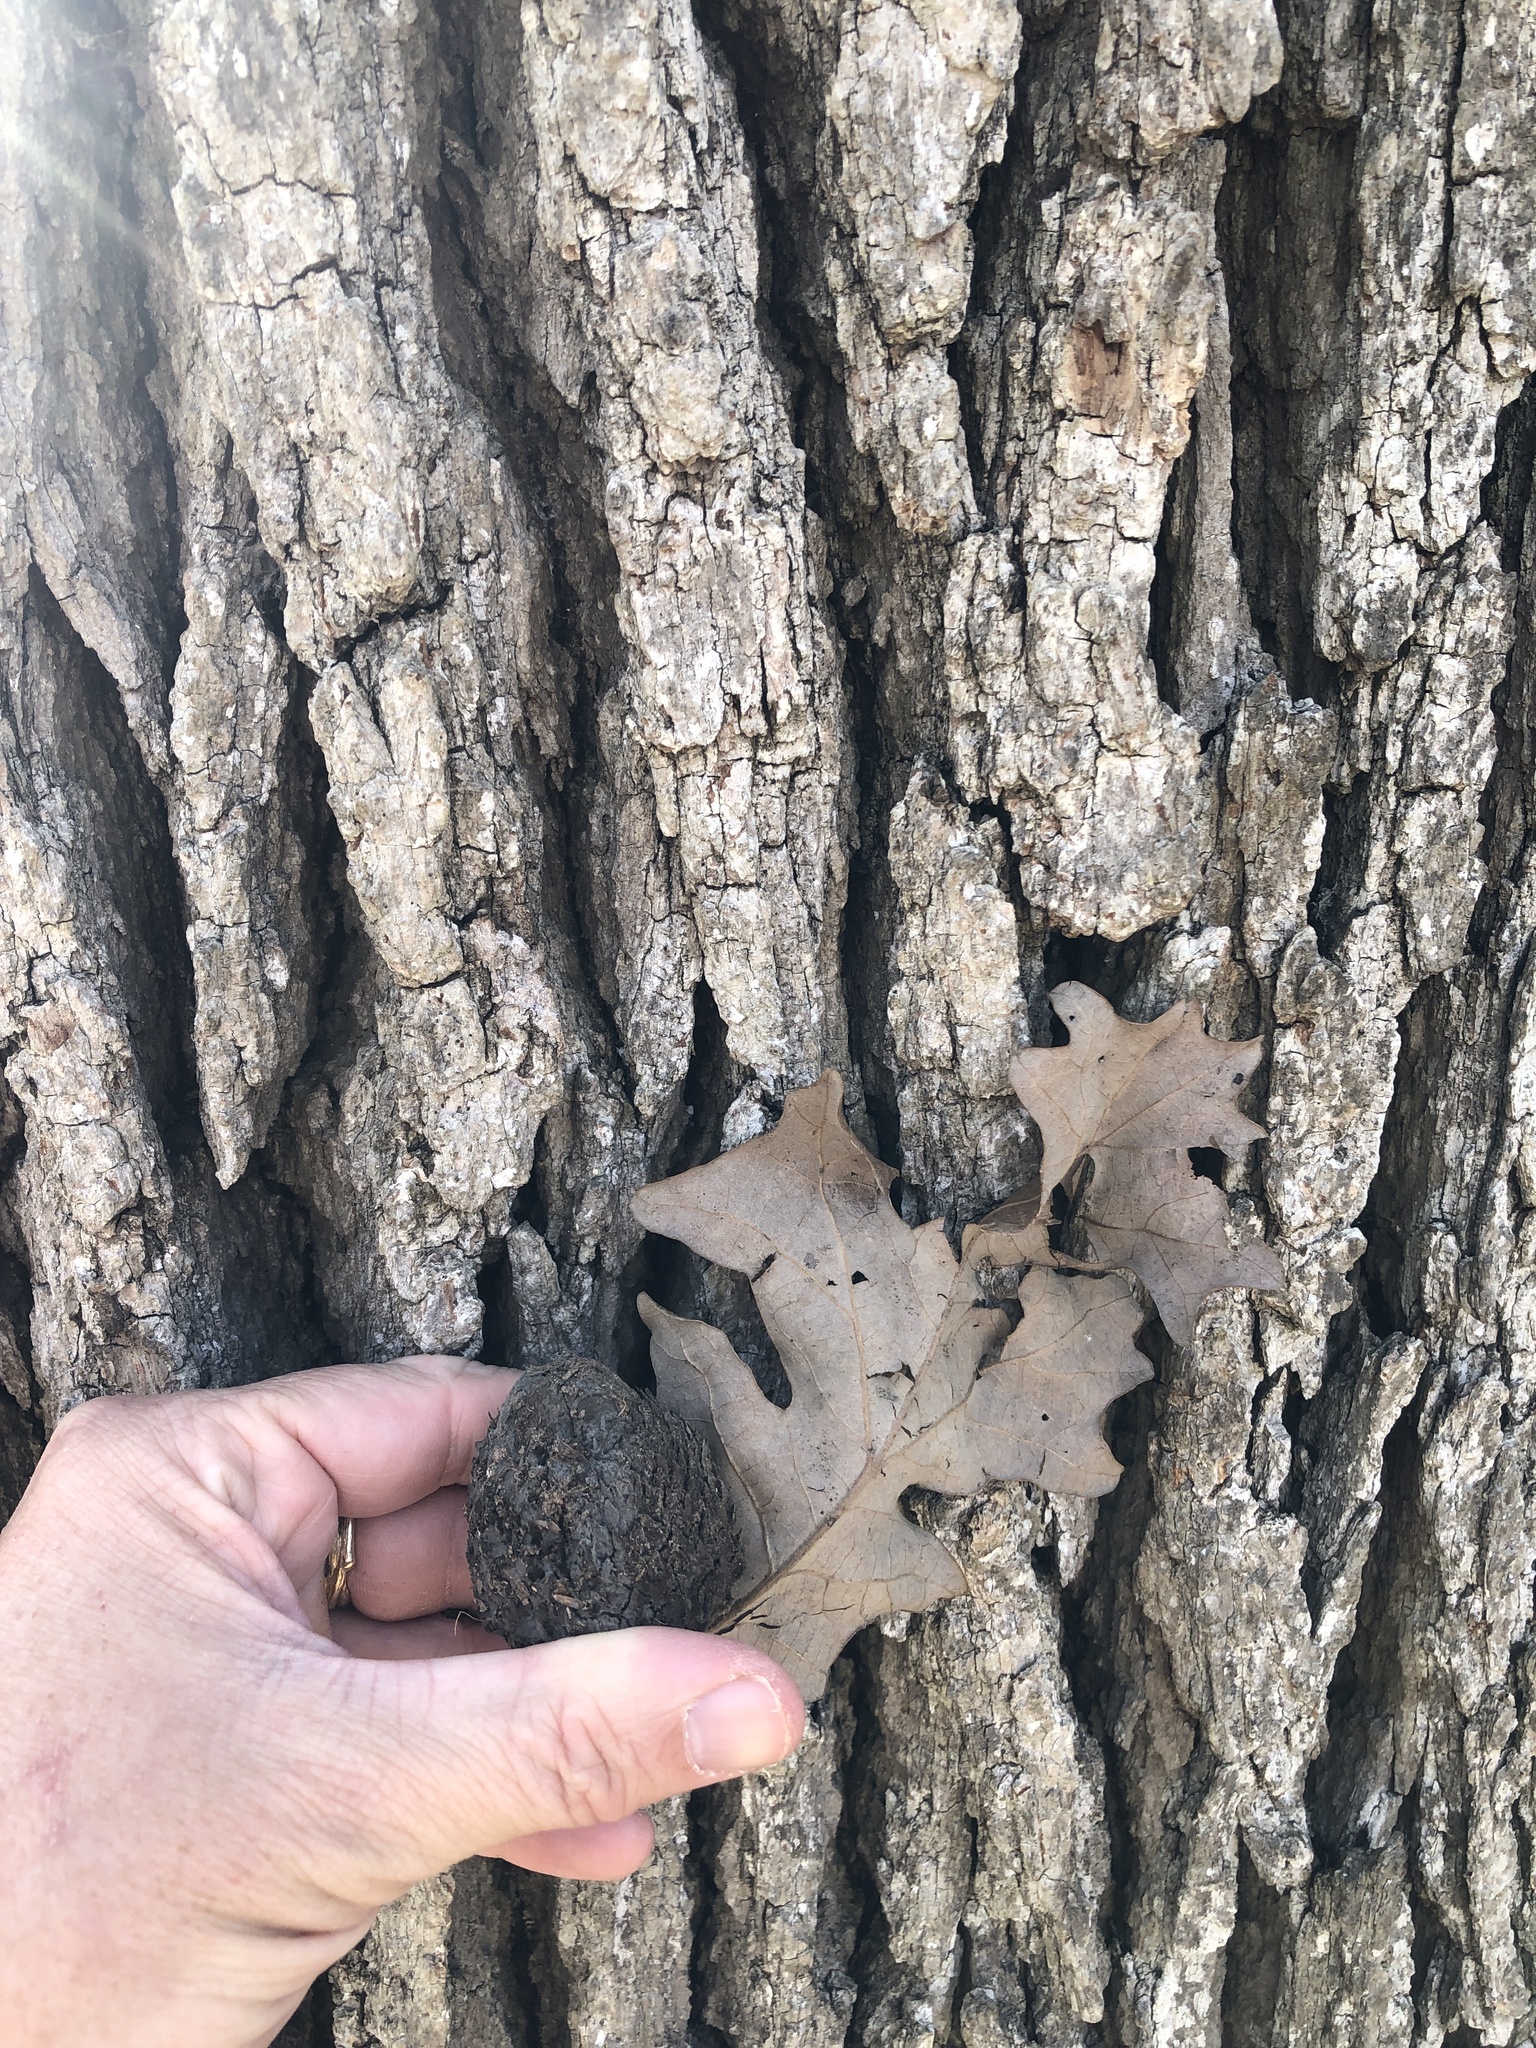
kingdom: Plantae
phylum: Tracheophyta
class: Magnoliopsida
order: Fagales
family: Fagaceae
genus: Quercus
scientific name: Quercus macrocarpa
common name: Bur oak
